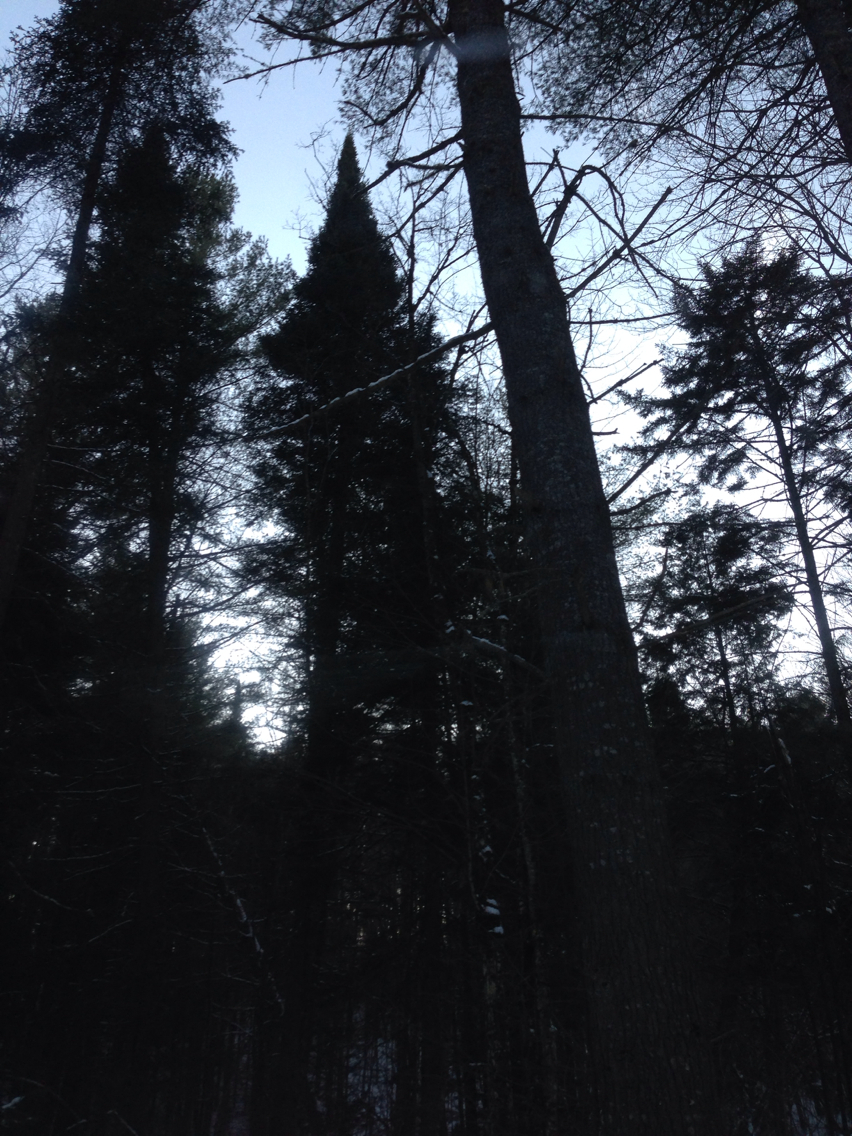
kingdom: Plantae
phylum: Tracheophyta
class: Pinopsida
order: Pinales
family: Pinaceae
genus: Abies
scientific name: Abies balsamea
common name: Balsam fir
